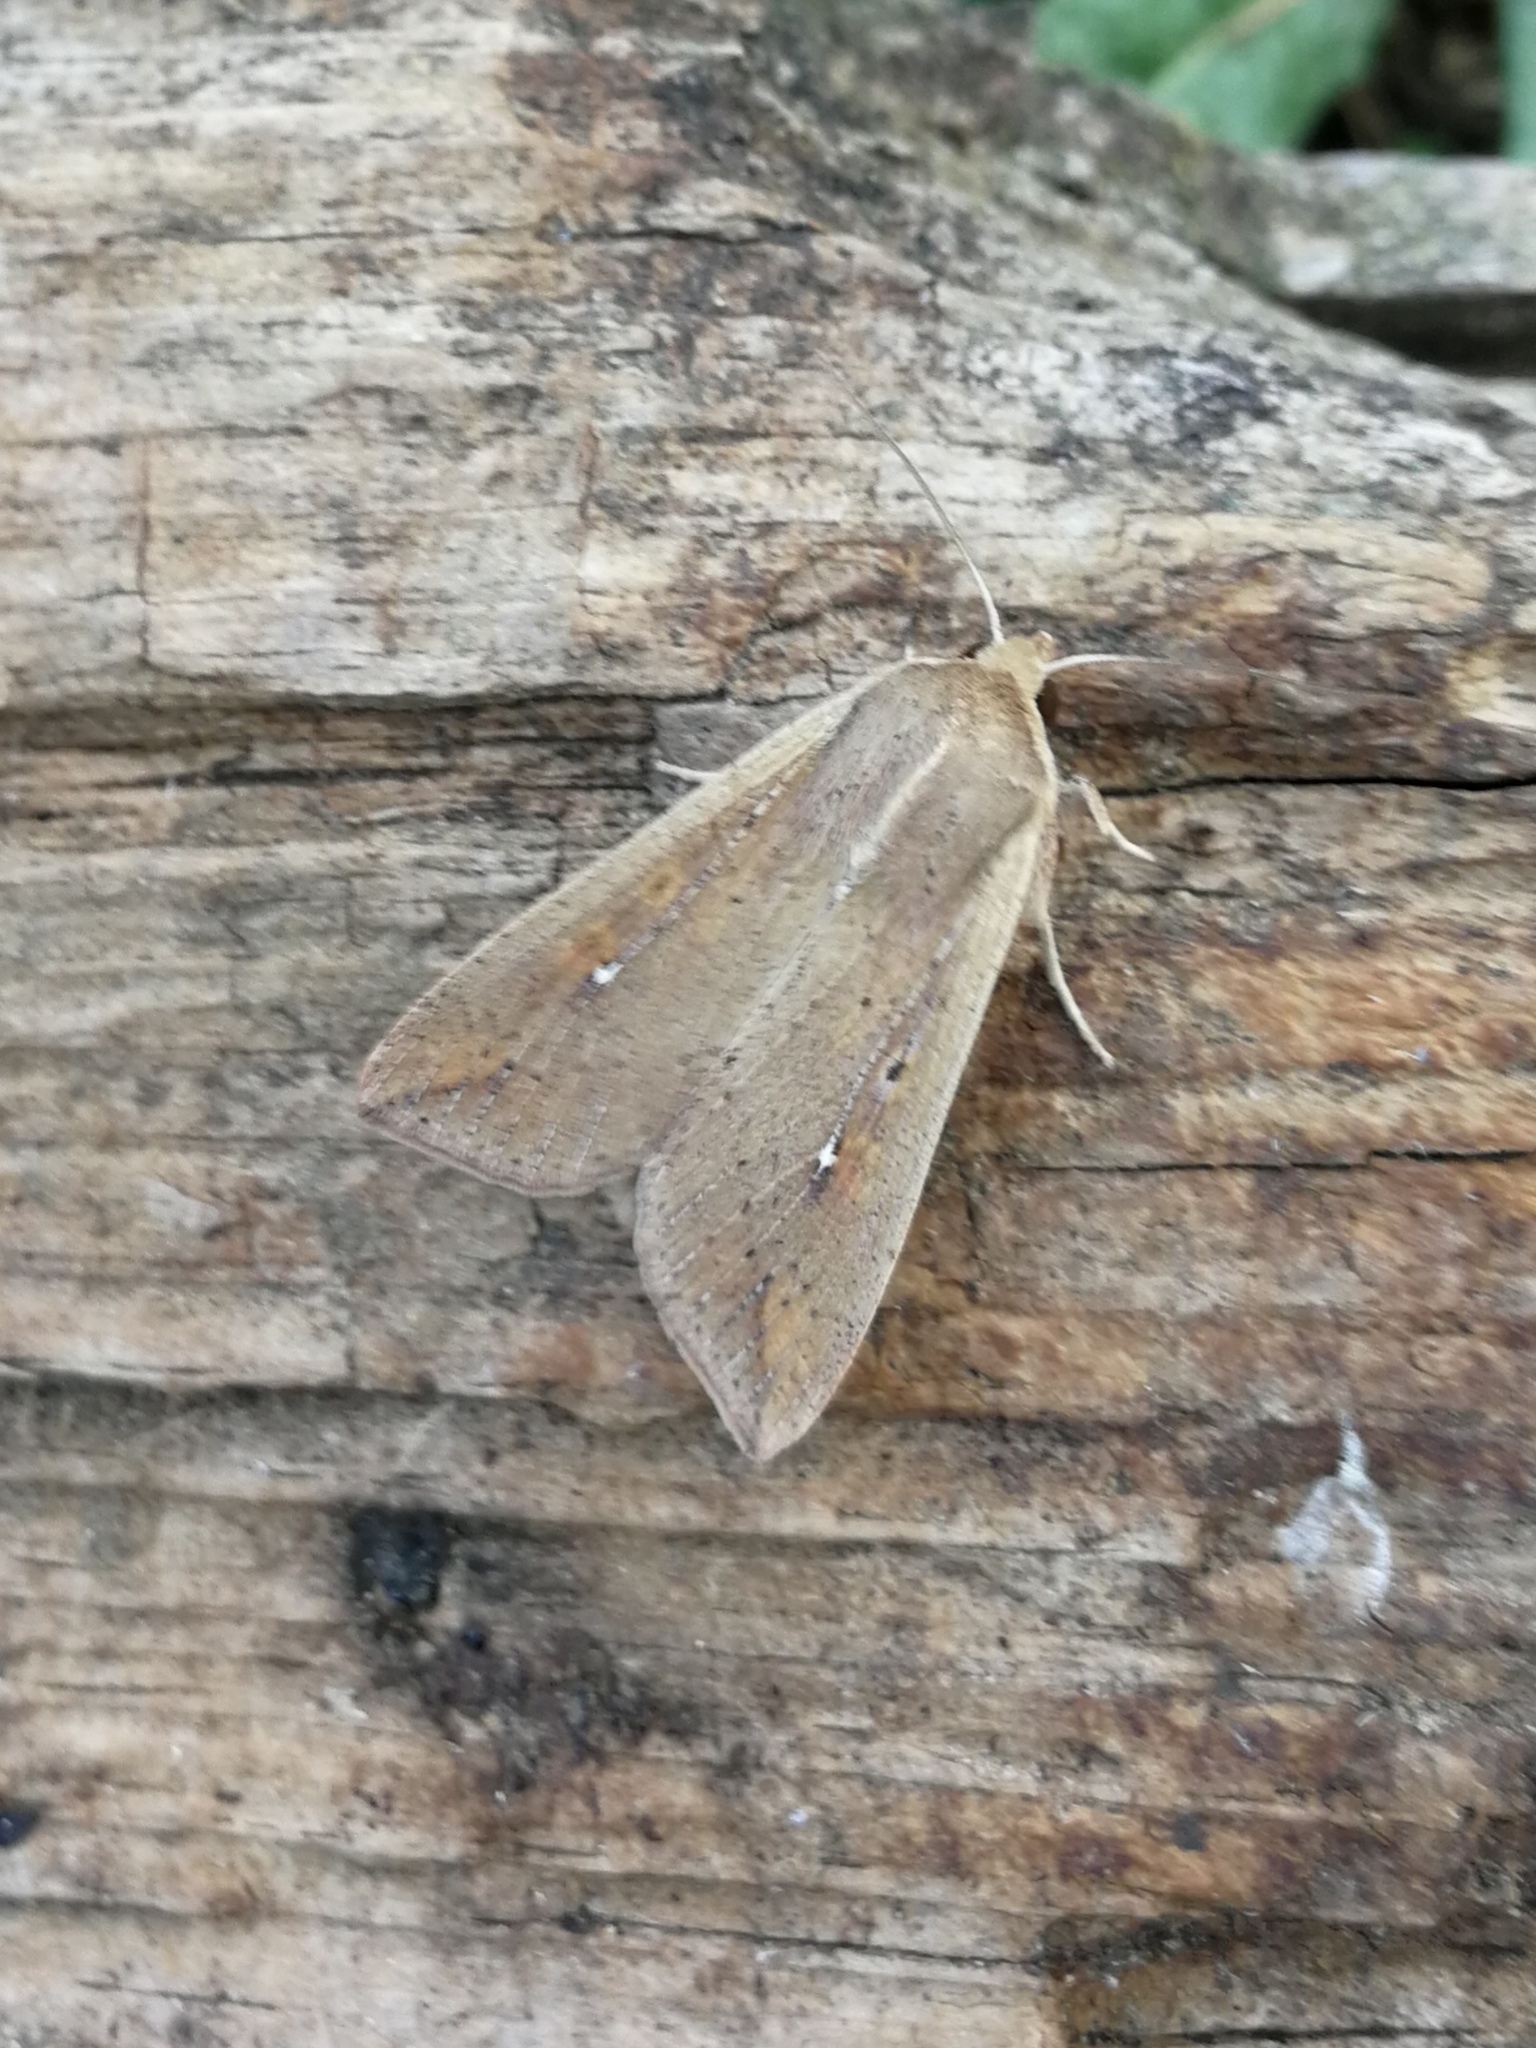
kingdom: Animalia
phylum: Arthropoda
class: Insecta
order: Lepidoptera
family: Noctuidae
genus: Mythimna
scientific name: Mythimna unipuncta
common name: White-speck
